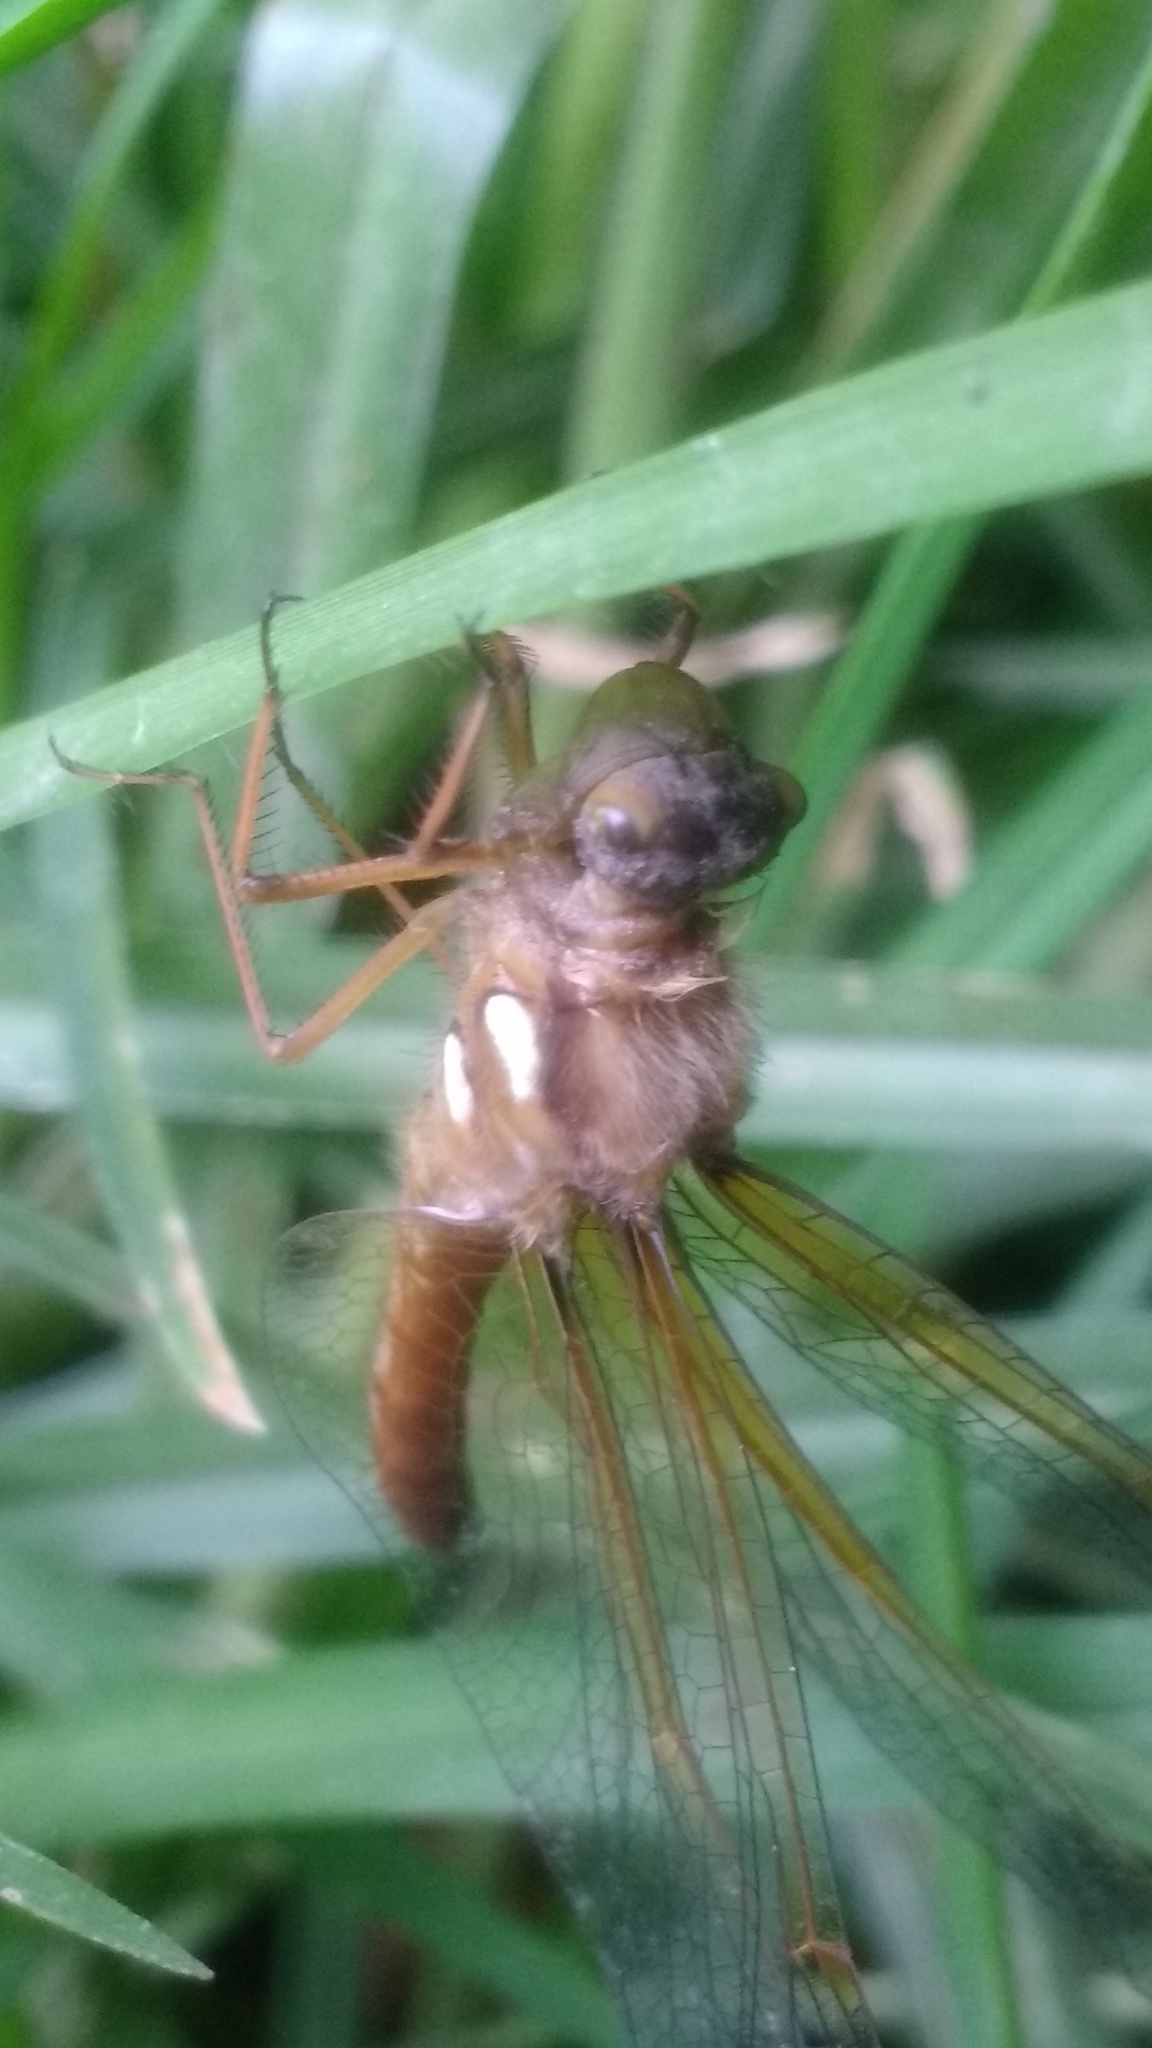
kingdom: Animalia
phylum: Arthropoda
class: Insecta
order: Odonata
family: Libellulidae
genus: Sympetrum
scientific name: Sympetrum illotum
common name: Cardinal meadowhawk
